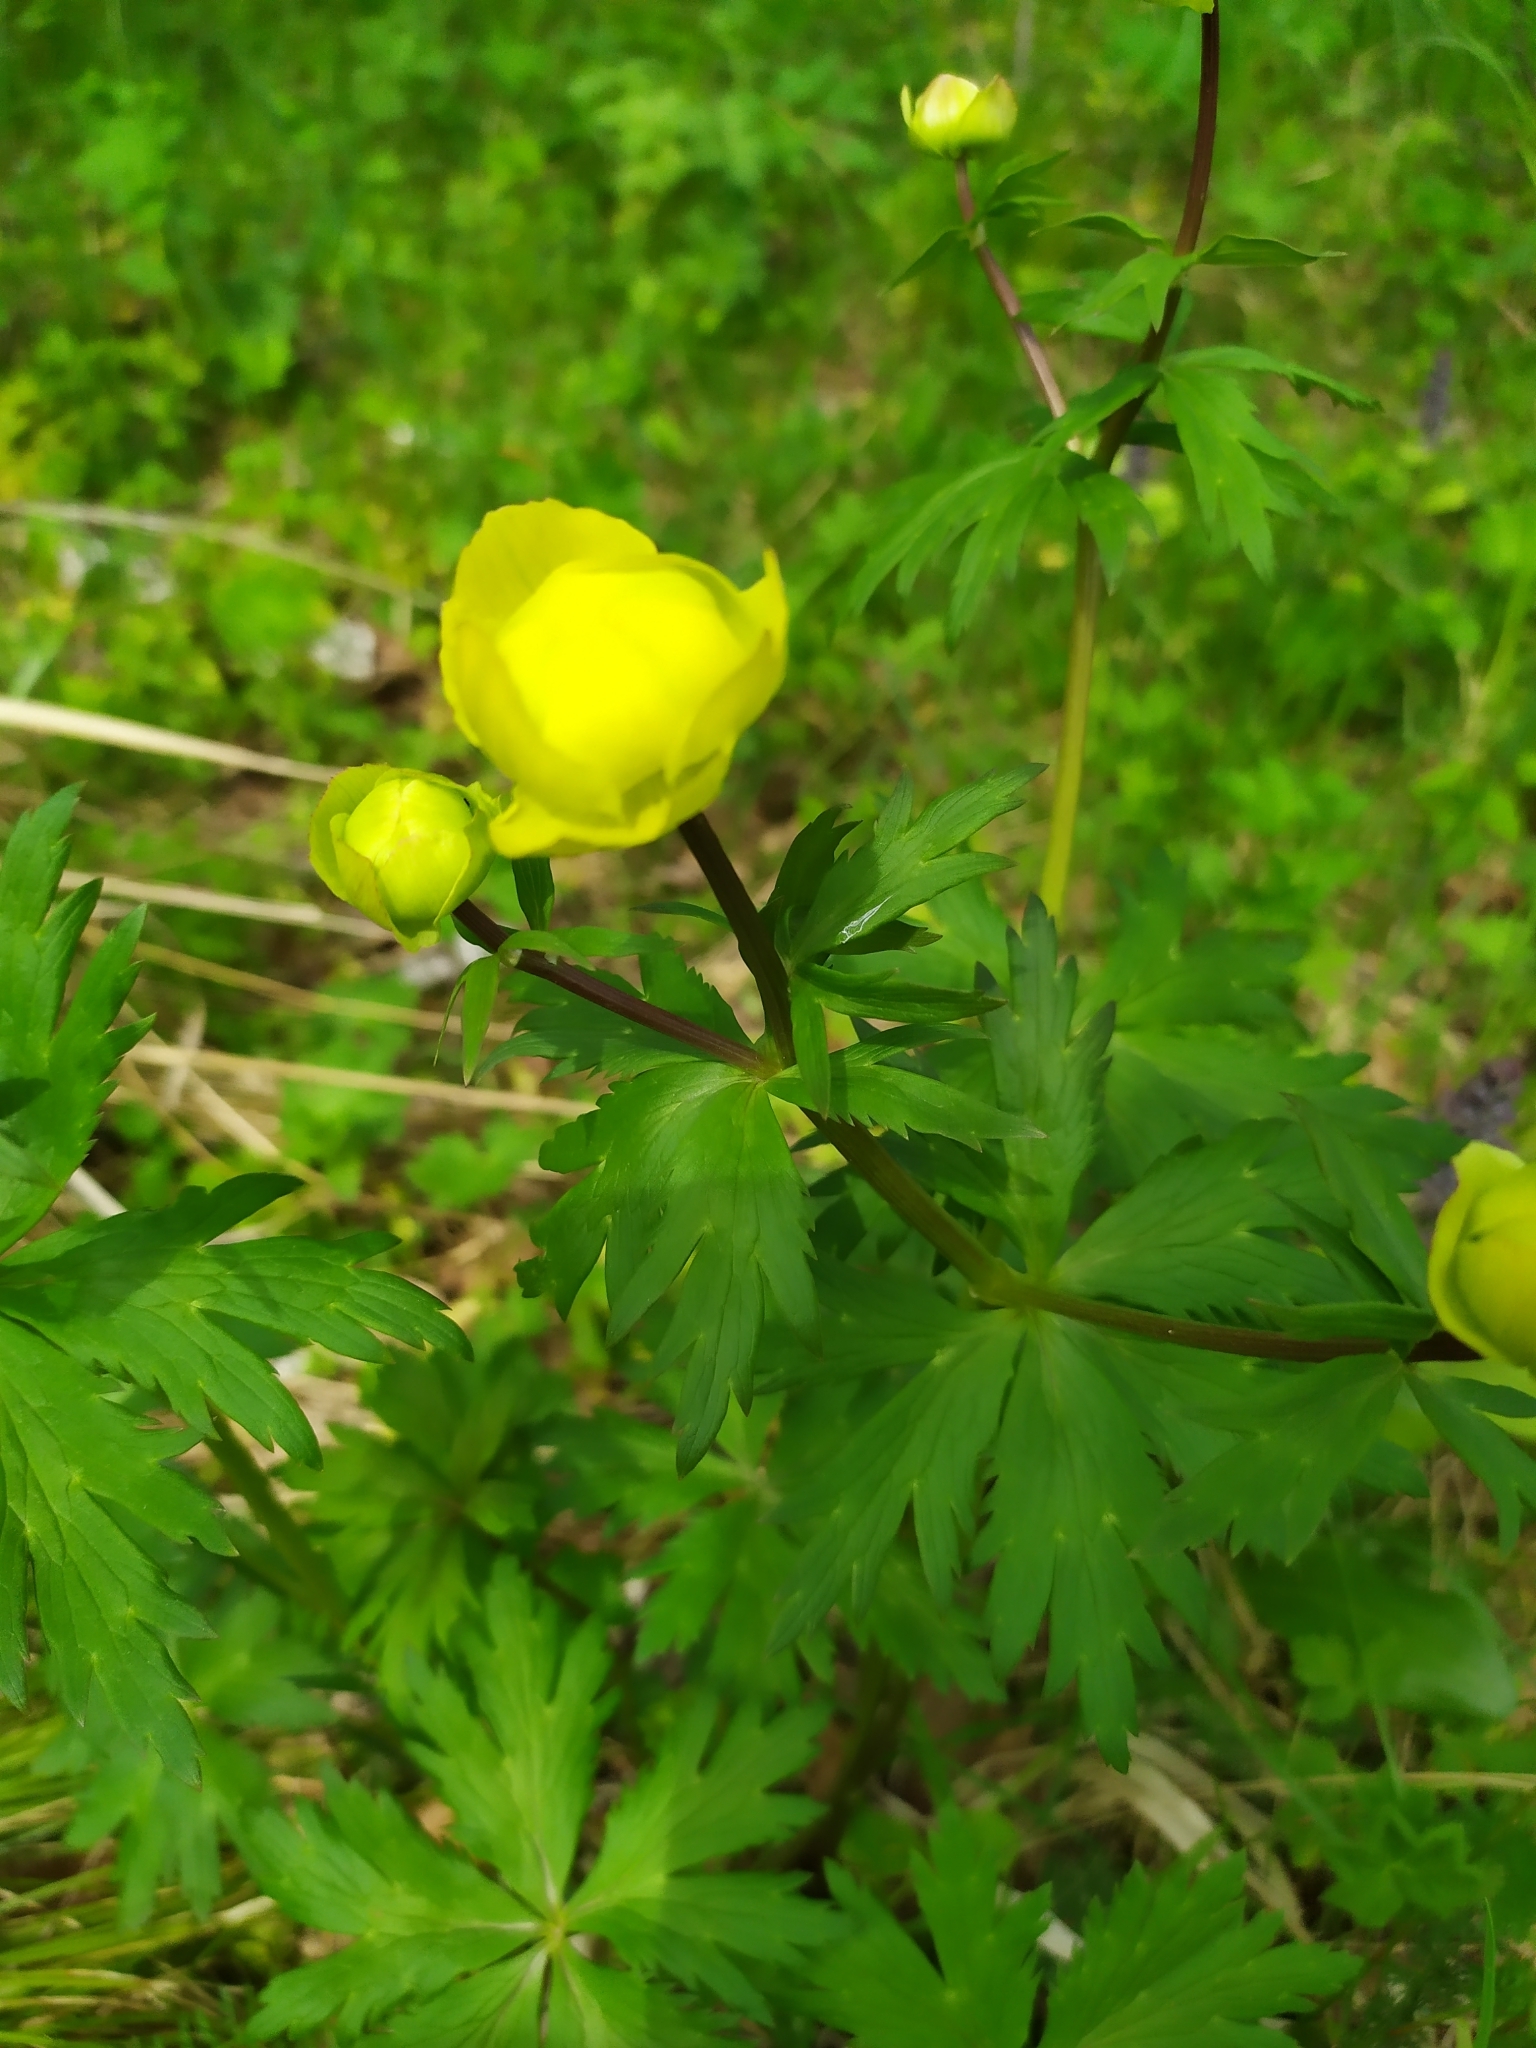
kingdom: Plantae
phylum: Tracheophyta
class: Magnoliopsida
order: Ranunculales
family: Ranunculaceae
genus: Trollius
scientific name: Trollius europaeus
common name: European globeflower
